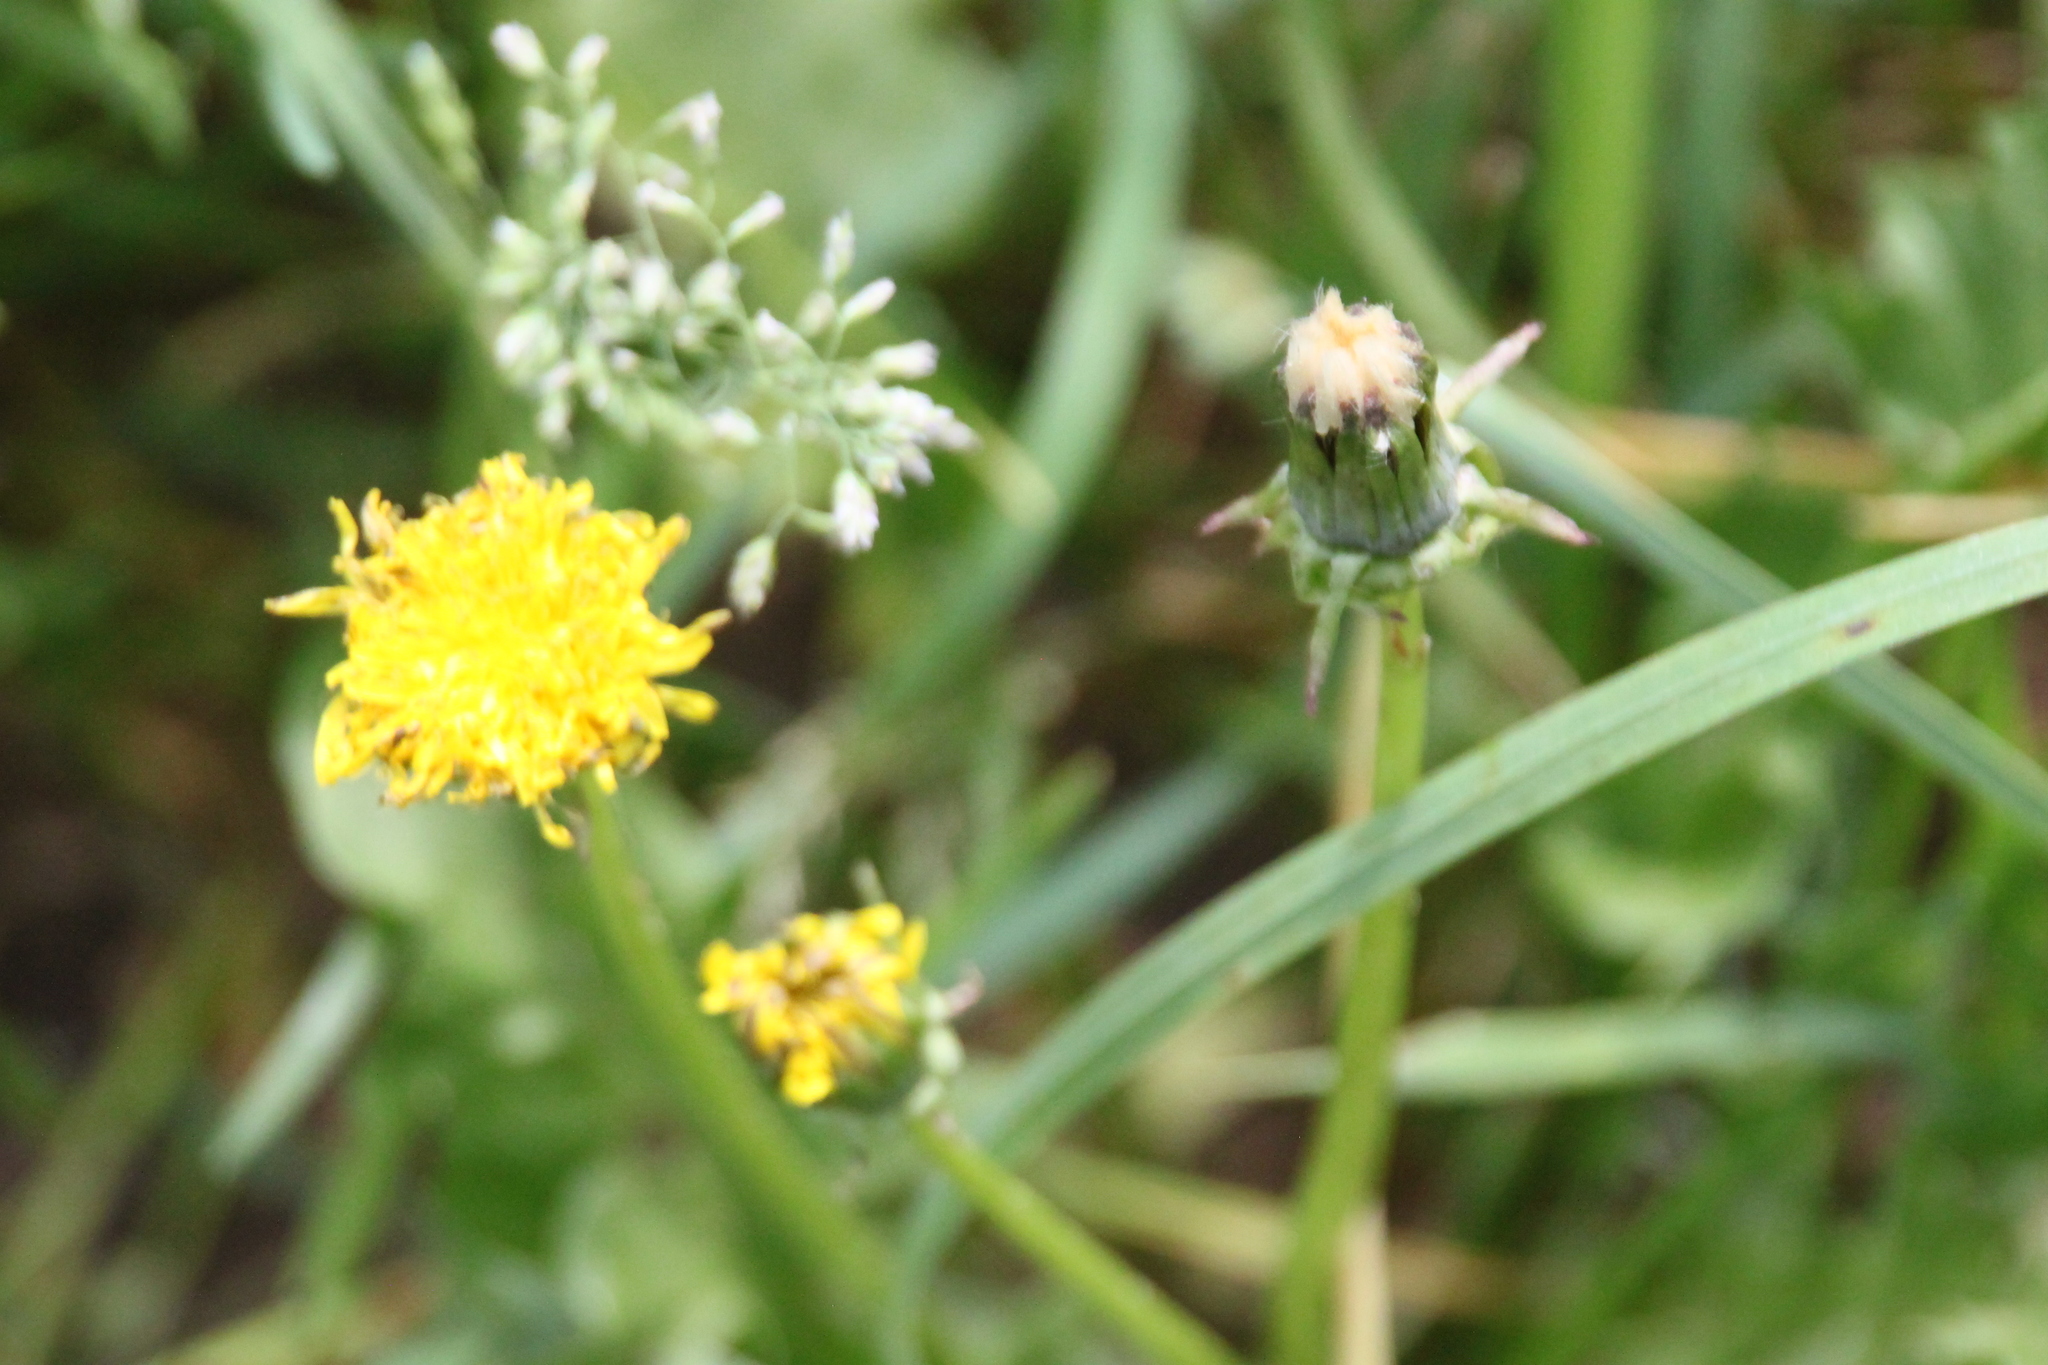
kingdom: Plantae
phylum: Tracheophyta
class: Magnoliopsida
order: Asterales
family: Asteraceae
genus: Taraxacum
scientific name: Taraxacum officinale
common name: Common dandelion
